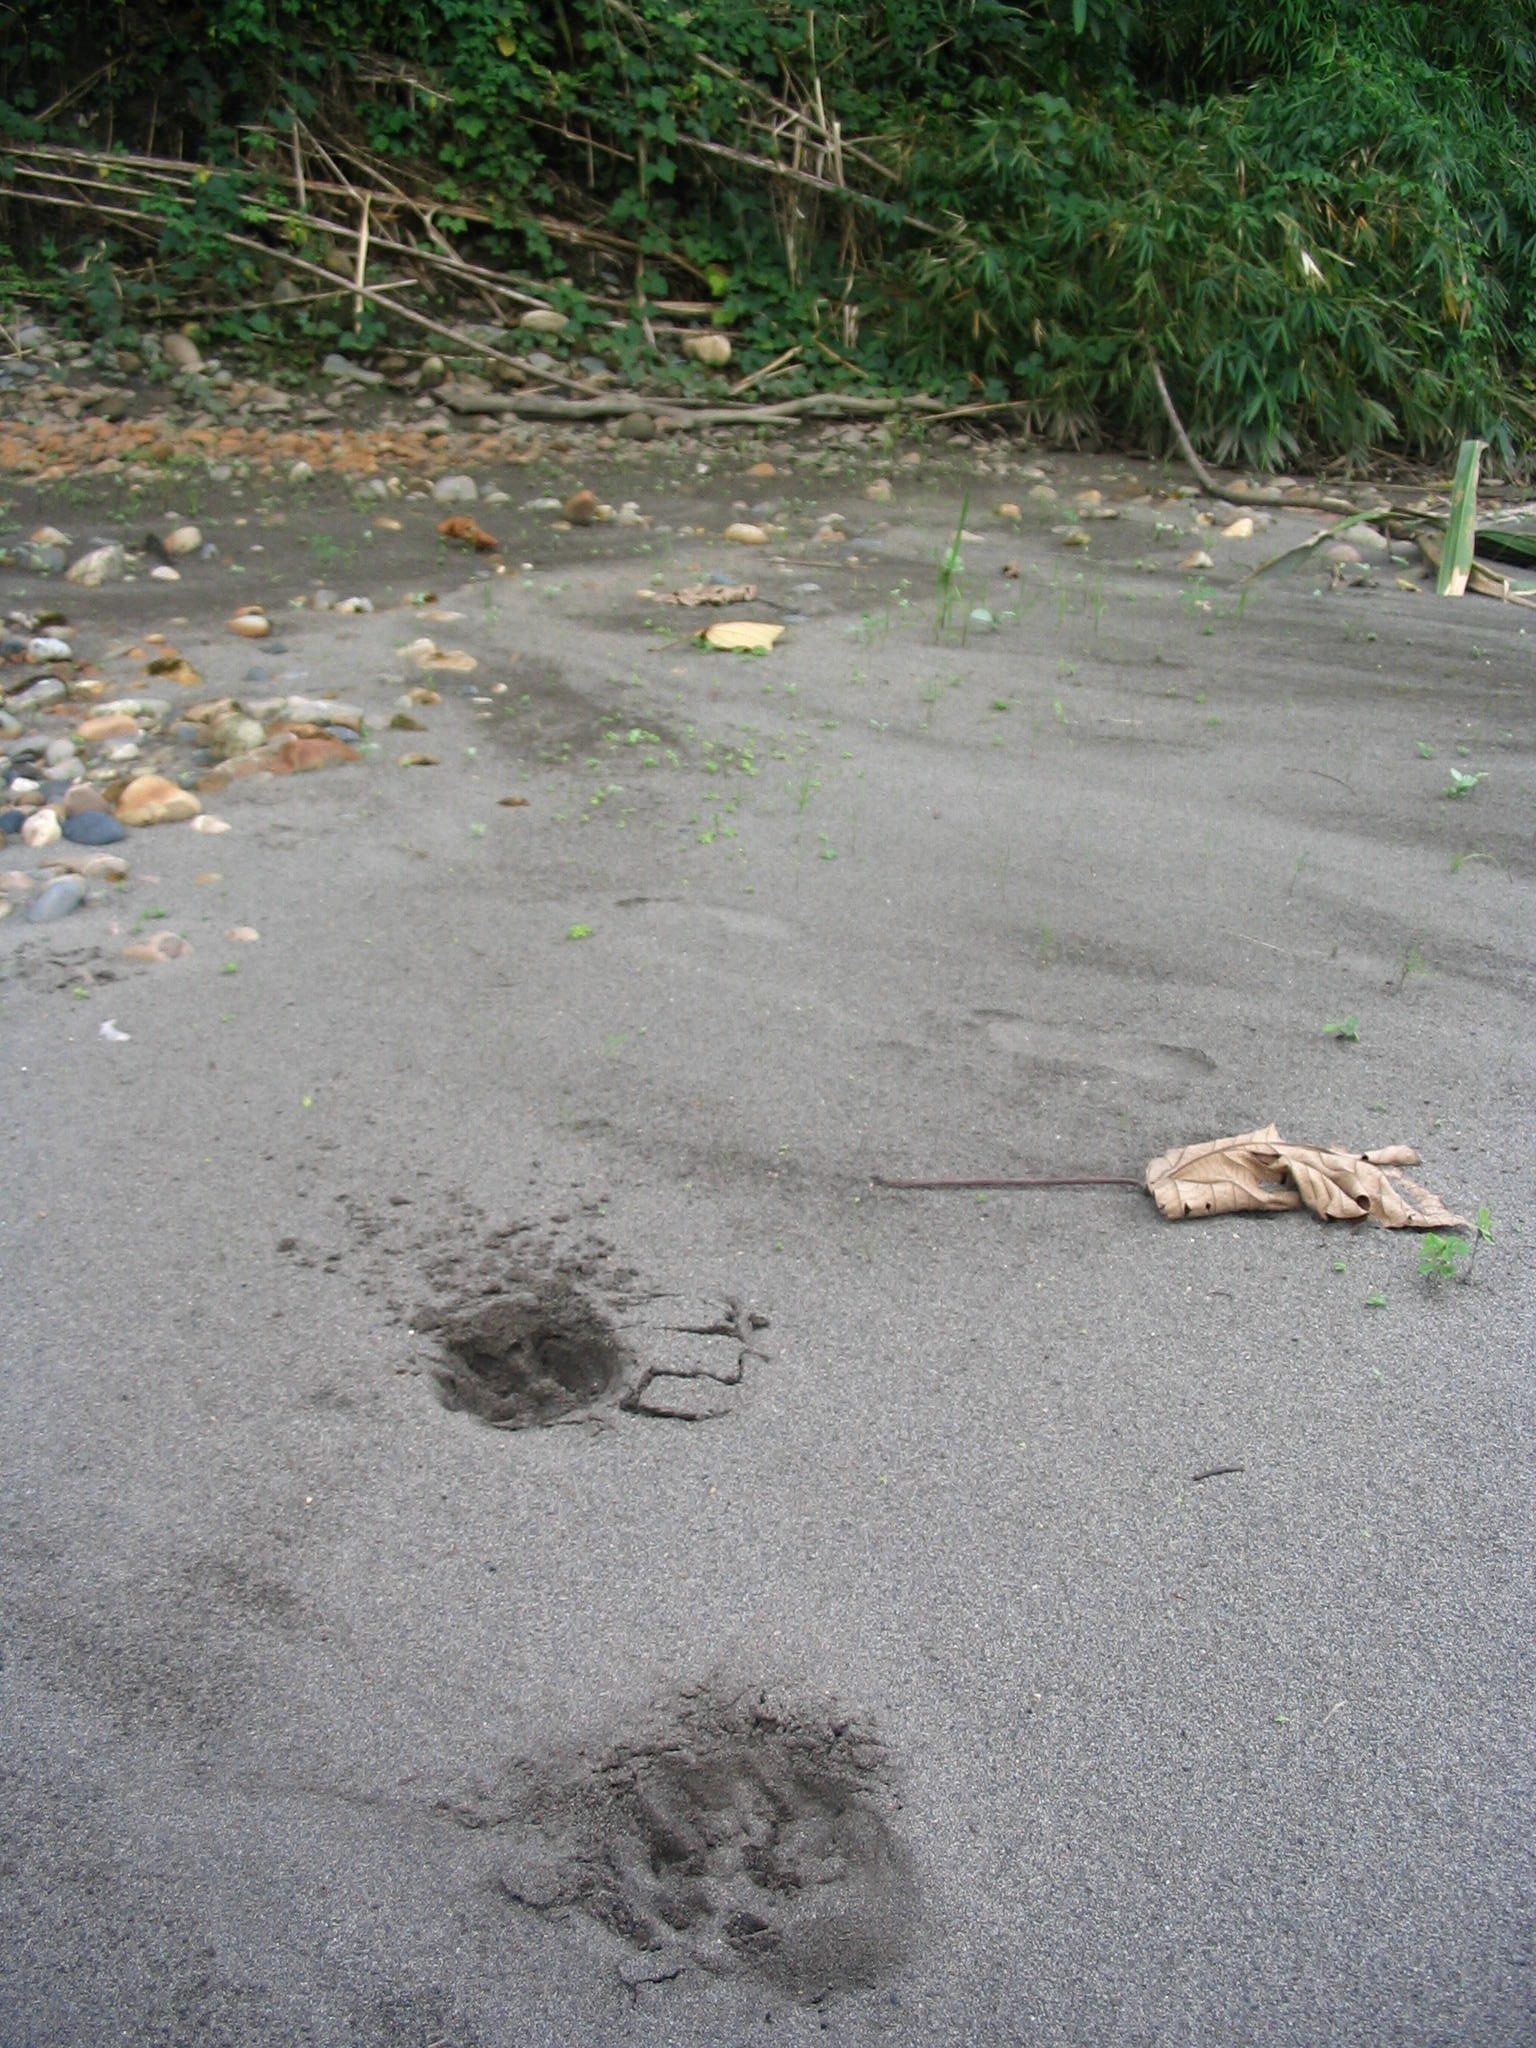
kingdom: Animalia
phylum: Chordata
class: Mammalia
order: Carnivora
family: Felidae
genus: Panthera
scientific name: Panthera onca
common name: Jaguar
